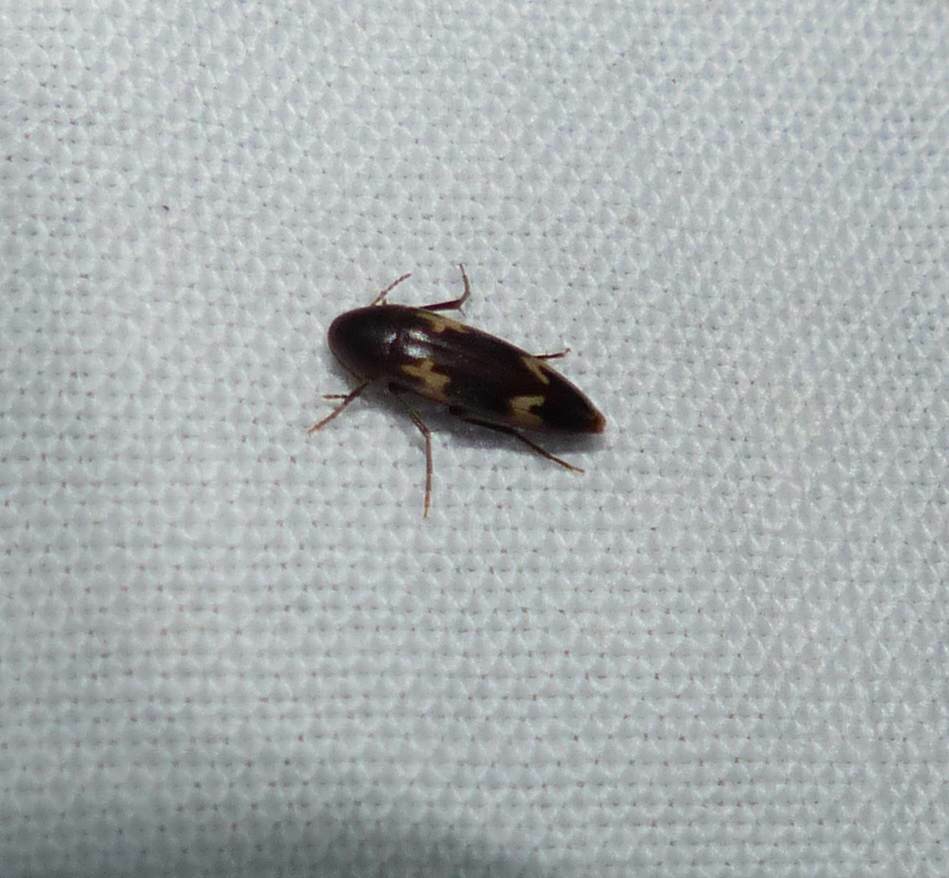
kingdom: Animalia
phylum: Arthropoda
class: Insecta
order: Coleoptera
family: Melandryidae
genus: Dircaea
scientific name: Dircaea liturata
